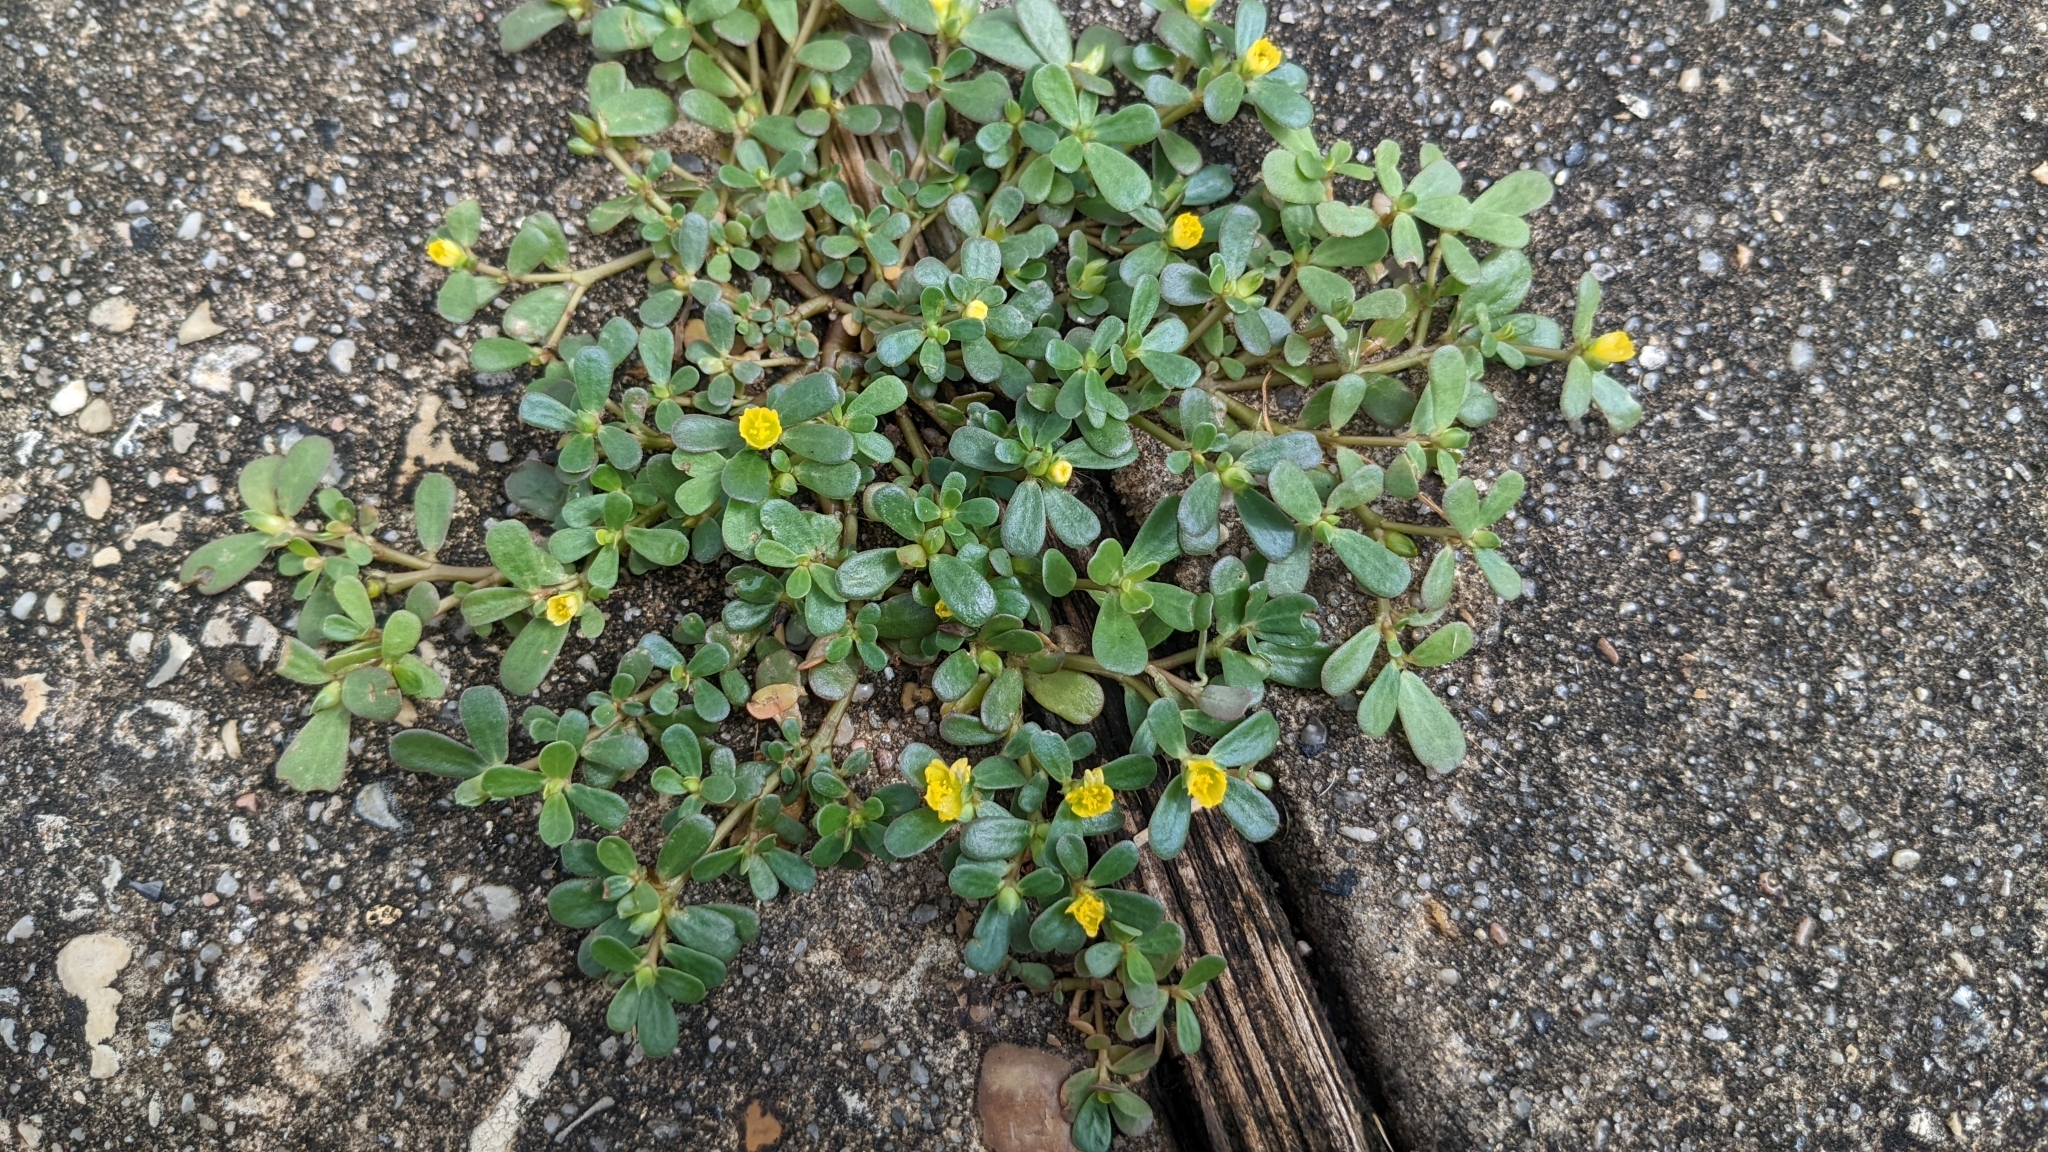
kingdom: Plantae
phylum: Tracheophyta
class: Magnoliopsida
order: Caryophyllales
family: Portulacaceae
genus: Portulaca
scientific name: Portulaca oleracea
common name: Common purslane
